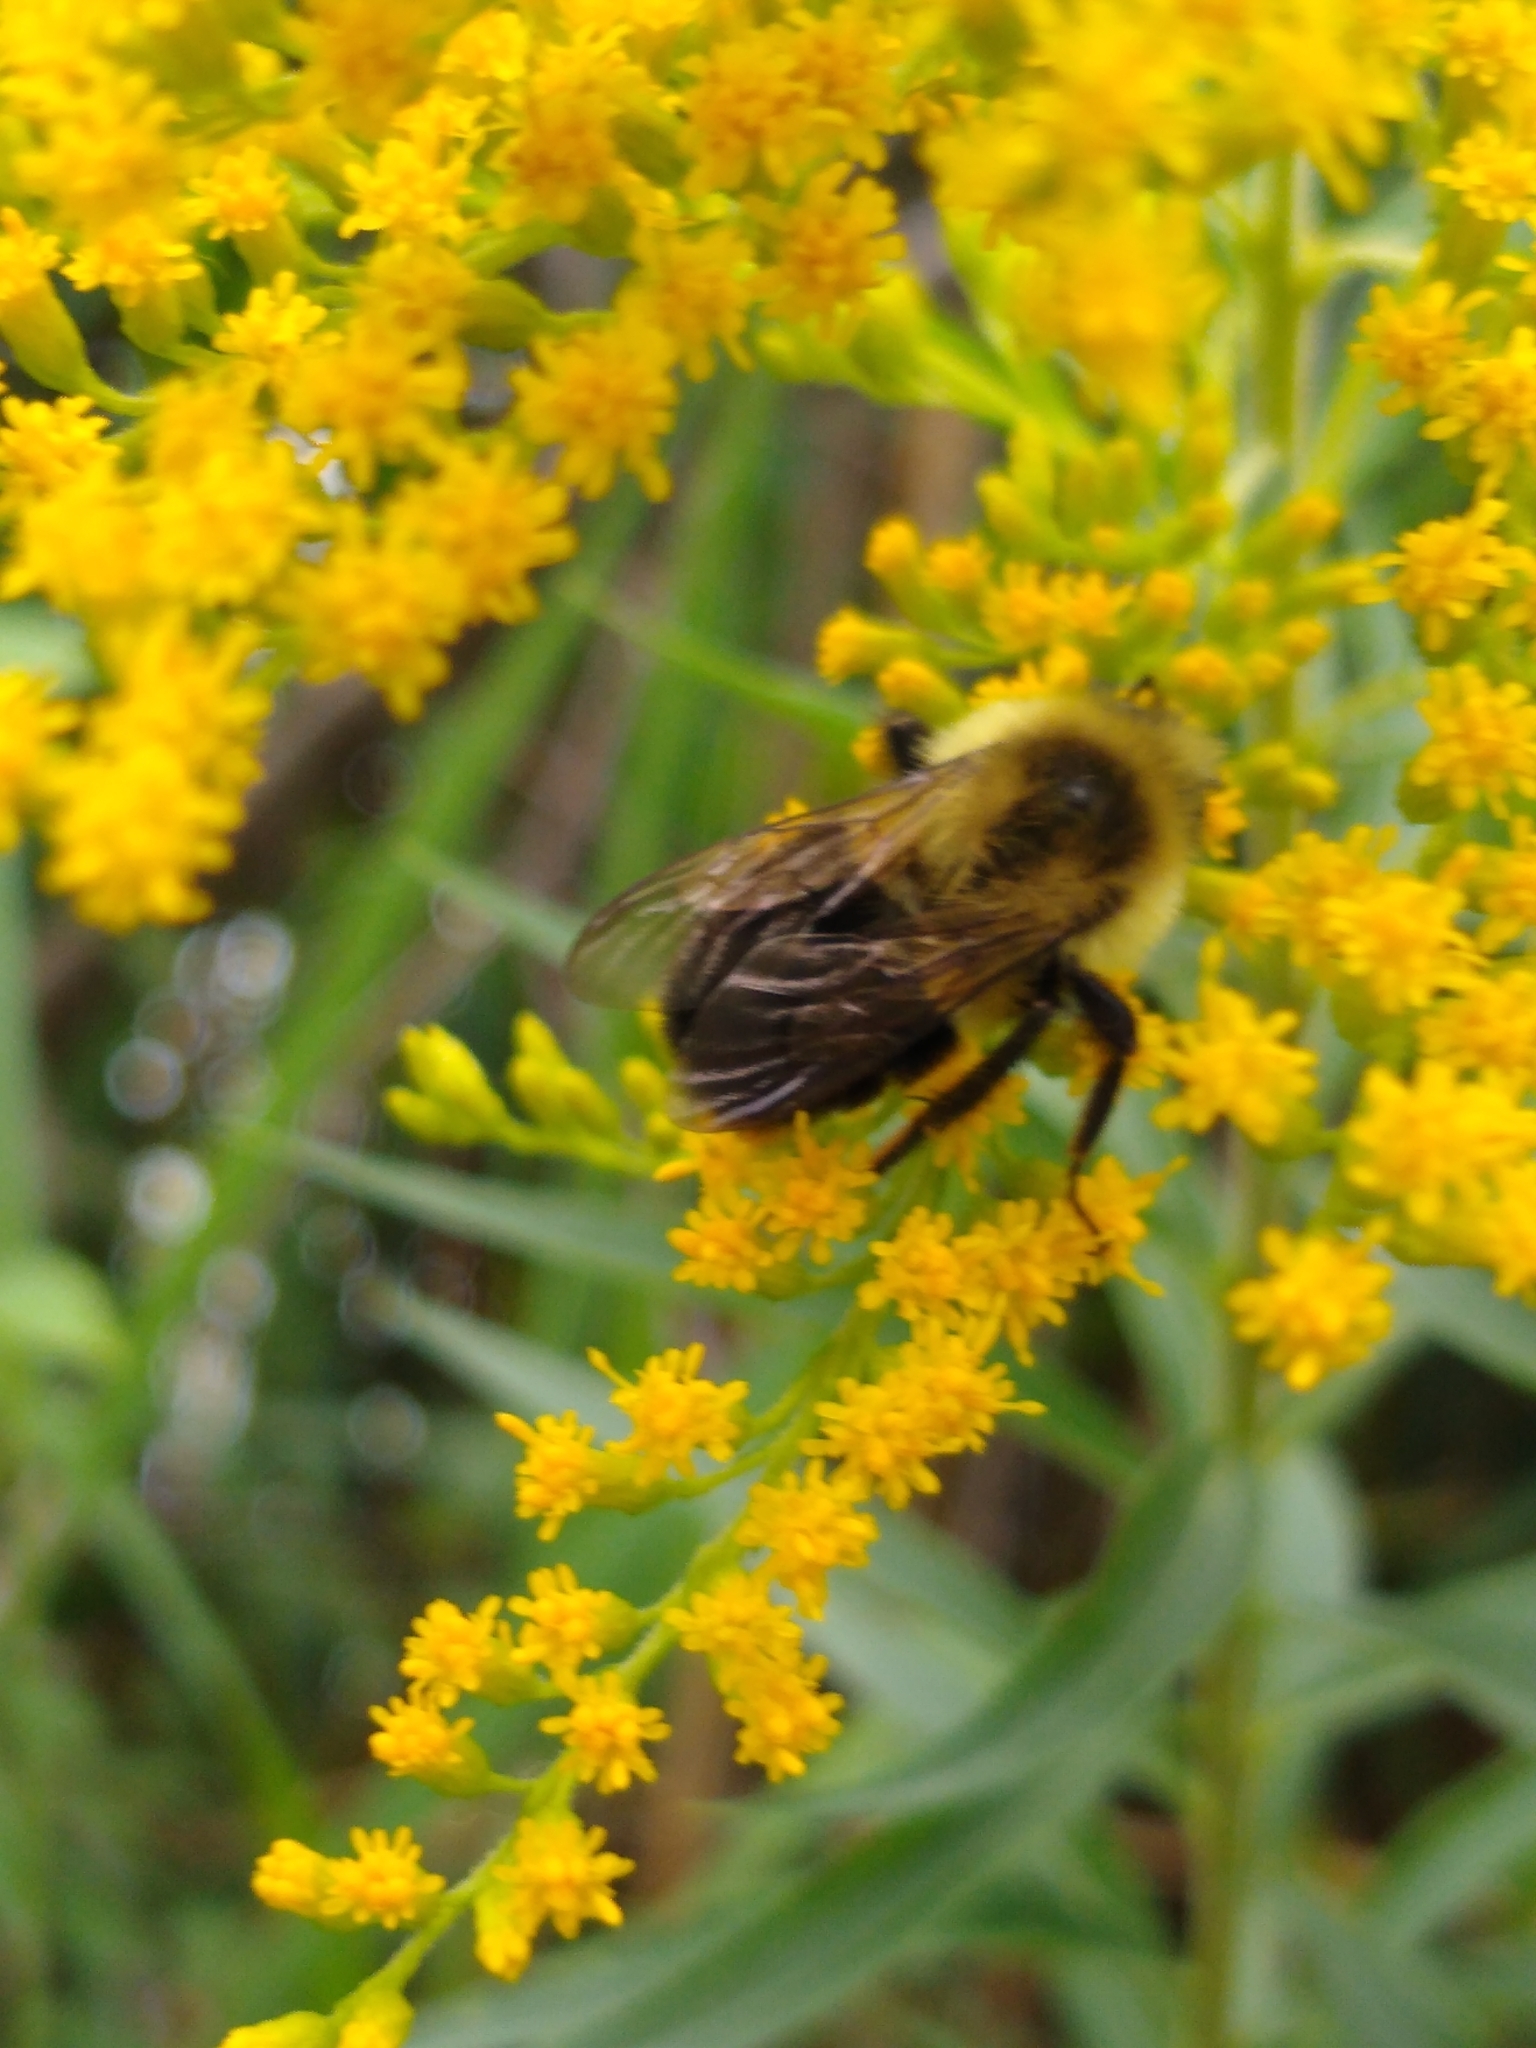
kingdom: Animalia
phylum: Arthropoda
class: Insecta
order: Hymenoptera
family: Apidae
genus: Bombus
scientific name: Bombus impatiens
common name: Common eastern bumble bee
